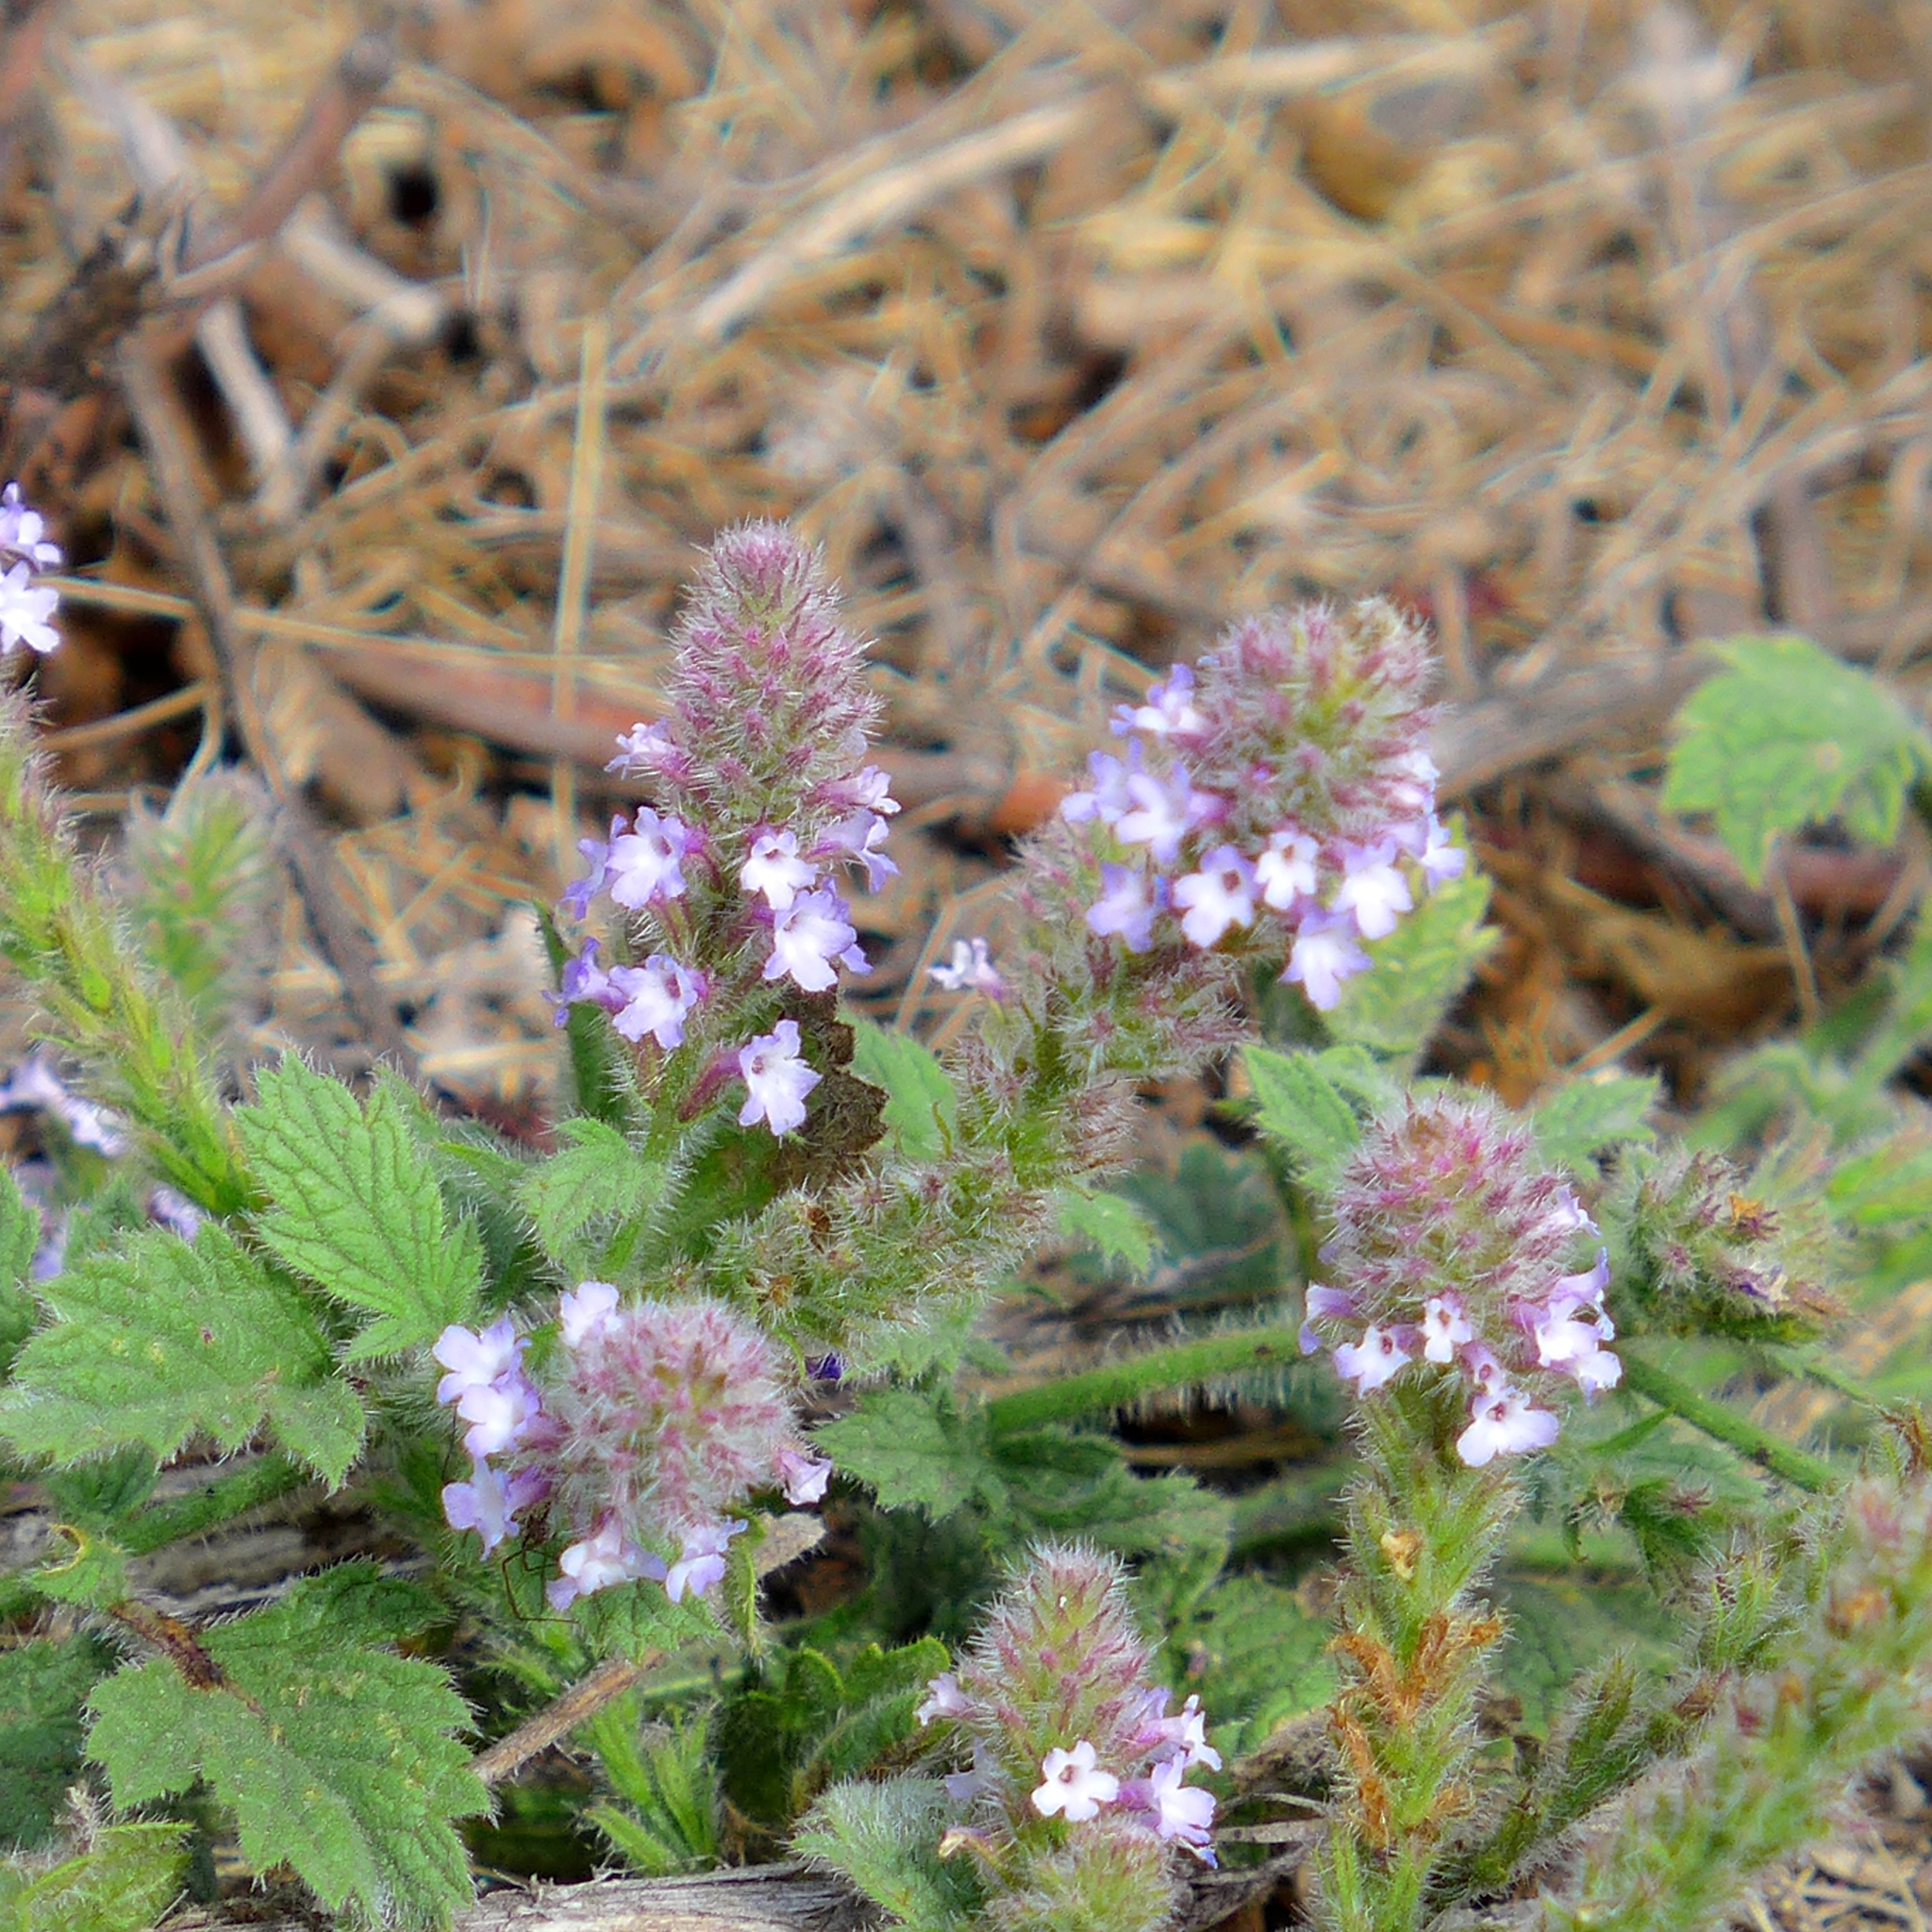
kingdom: Plantae
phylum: Tracheophyta
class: Magnoliopsida
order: Lamiales
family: Verbenaceae
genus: Verbena
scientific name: Verbena lasiostachys
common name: Vervain
